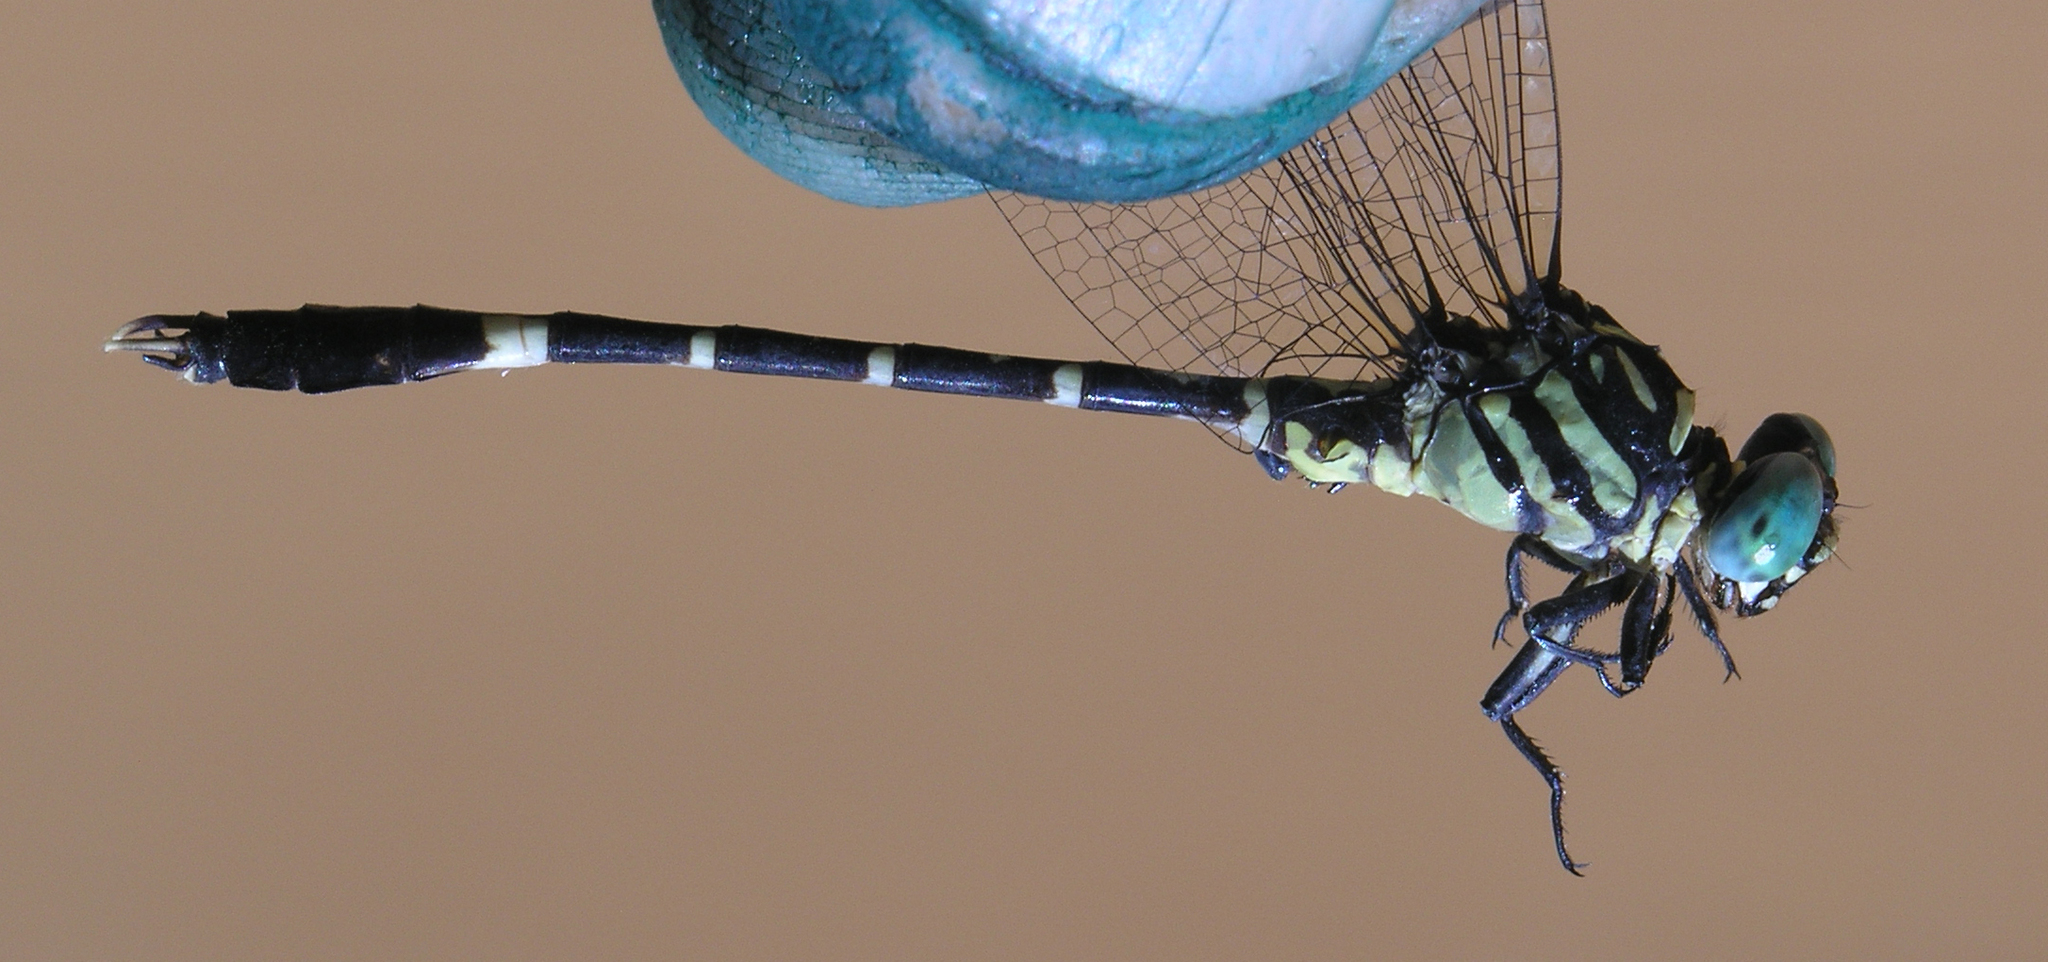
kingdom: Animalia
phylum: Arthropoda
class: Insecta
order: Odonata
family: Gomphidae
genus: Orientogomphus
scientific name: Orientogomphus minor
